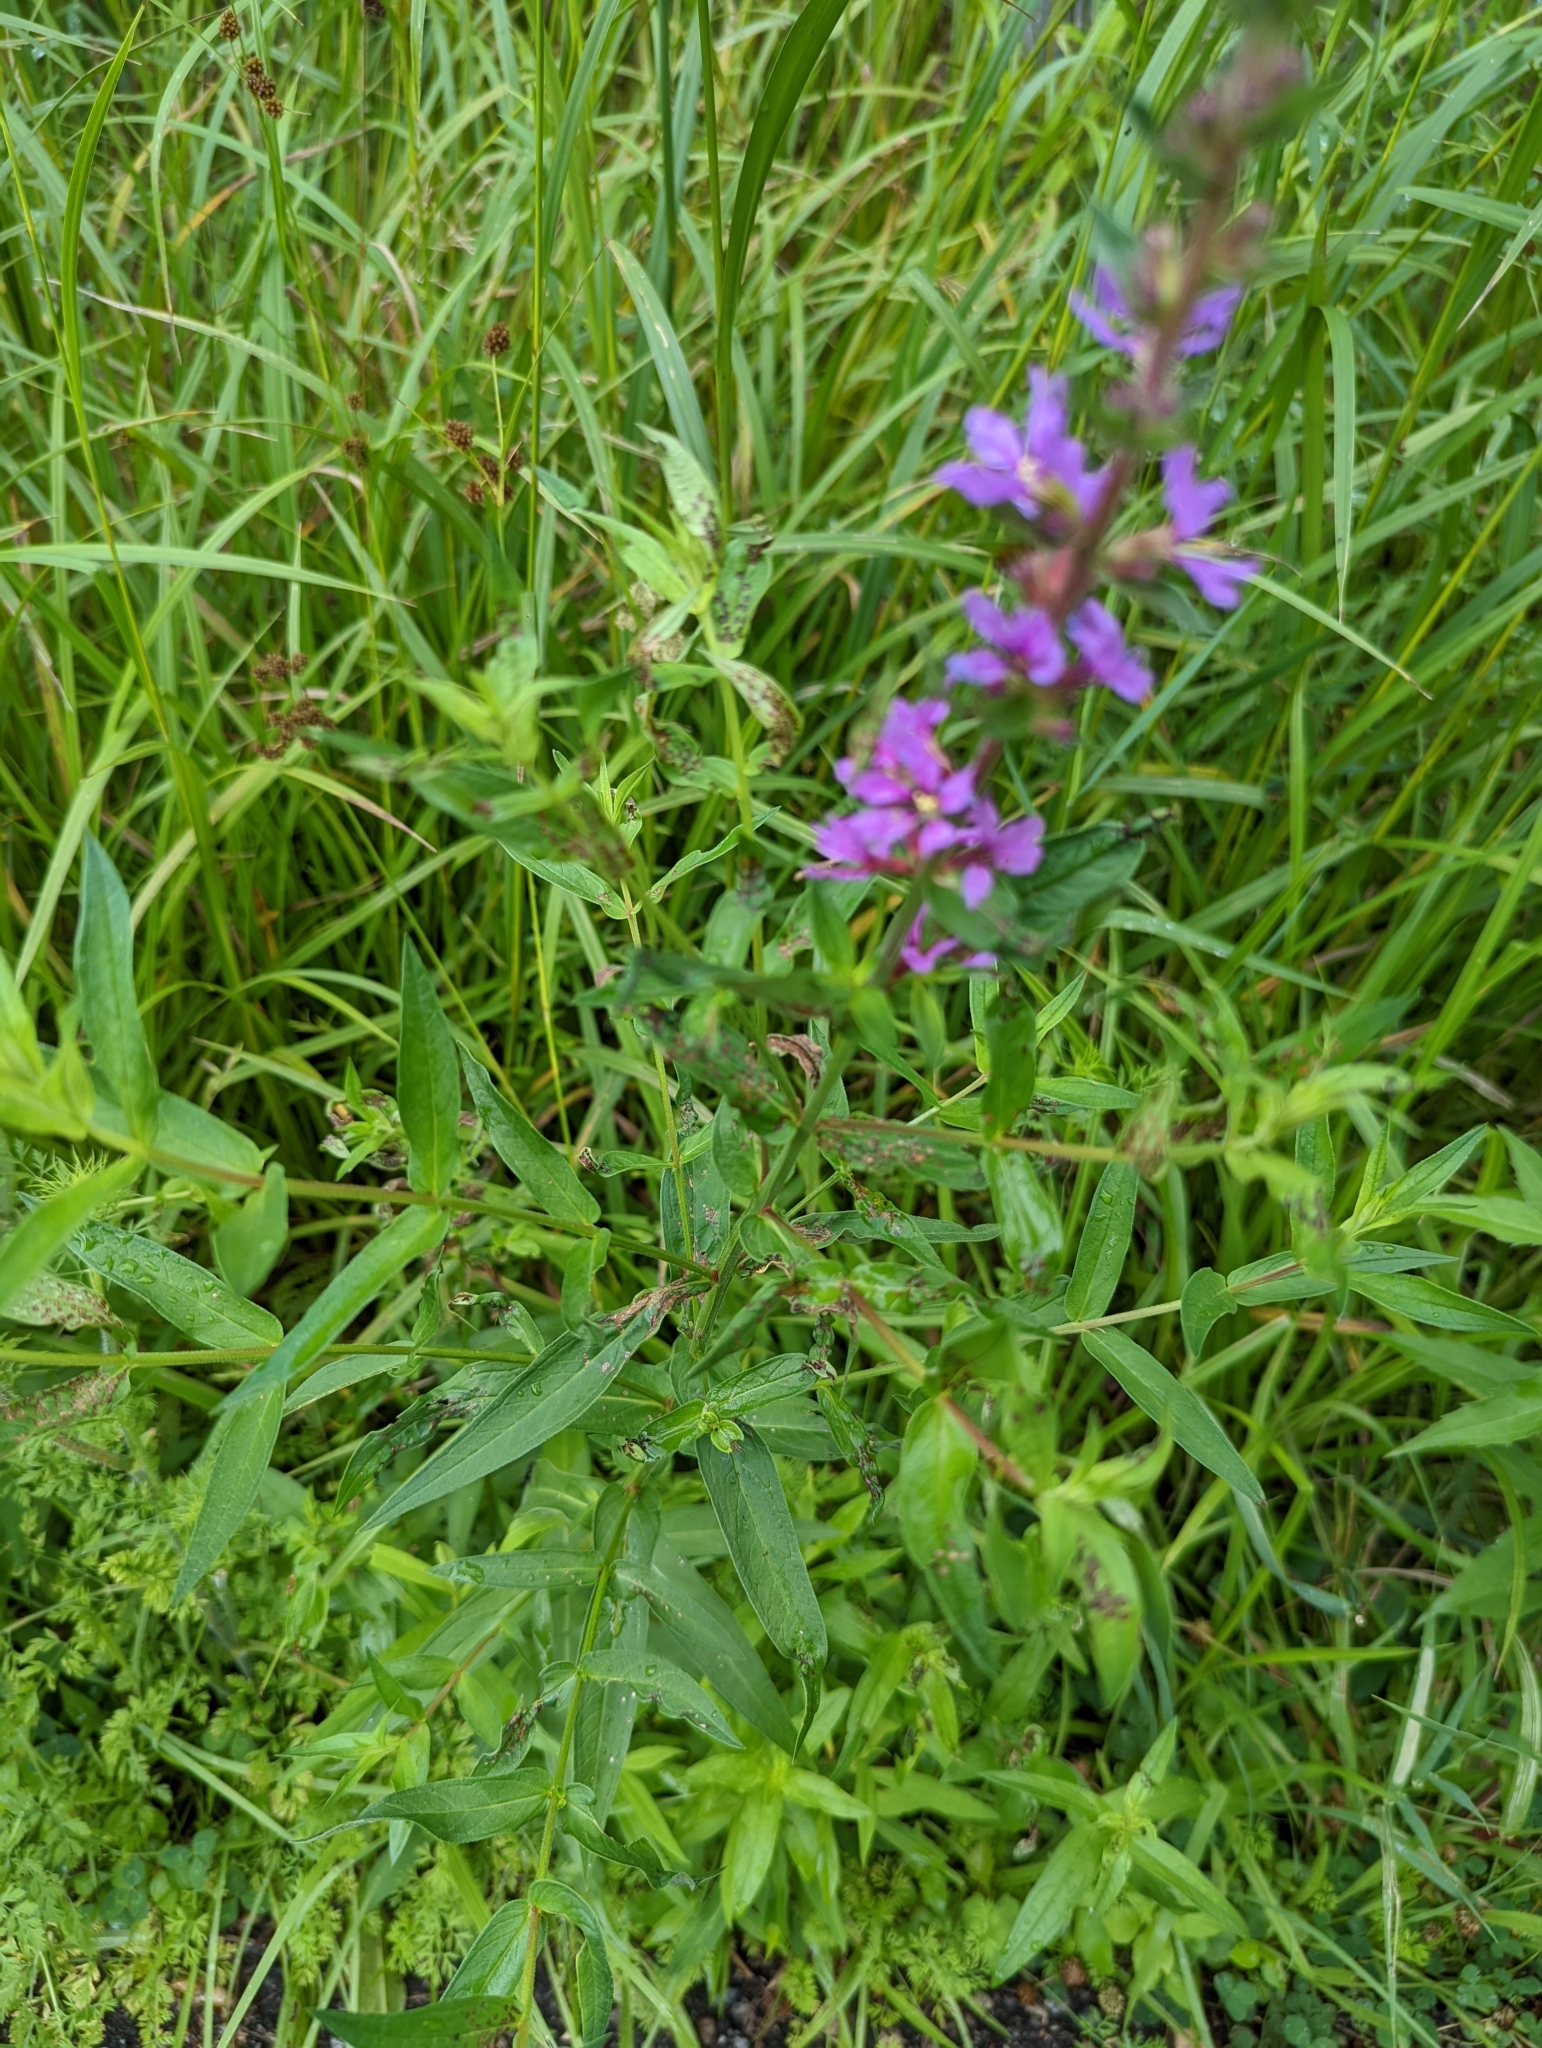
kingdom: Plantae
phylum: Tracheophyta
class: Magnoliopsida
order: Myrtales
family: Lythraceae
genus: Lythrum
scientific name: Lythrum salicaria
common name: Purple loosestrife
